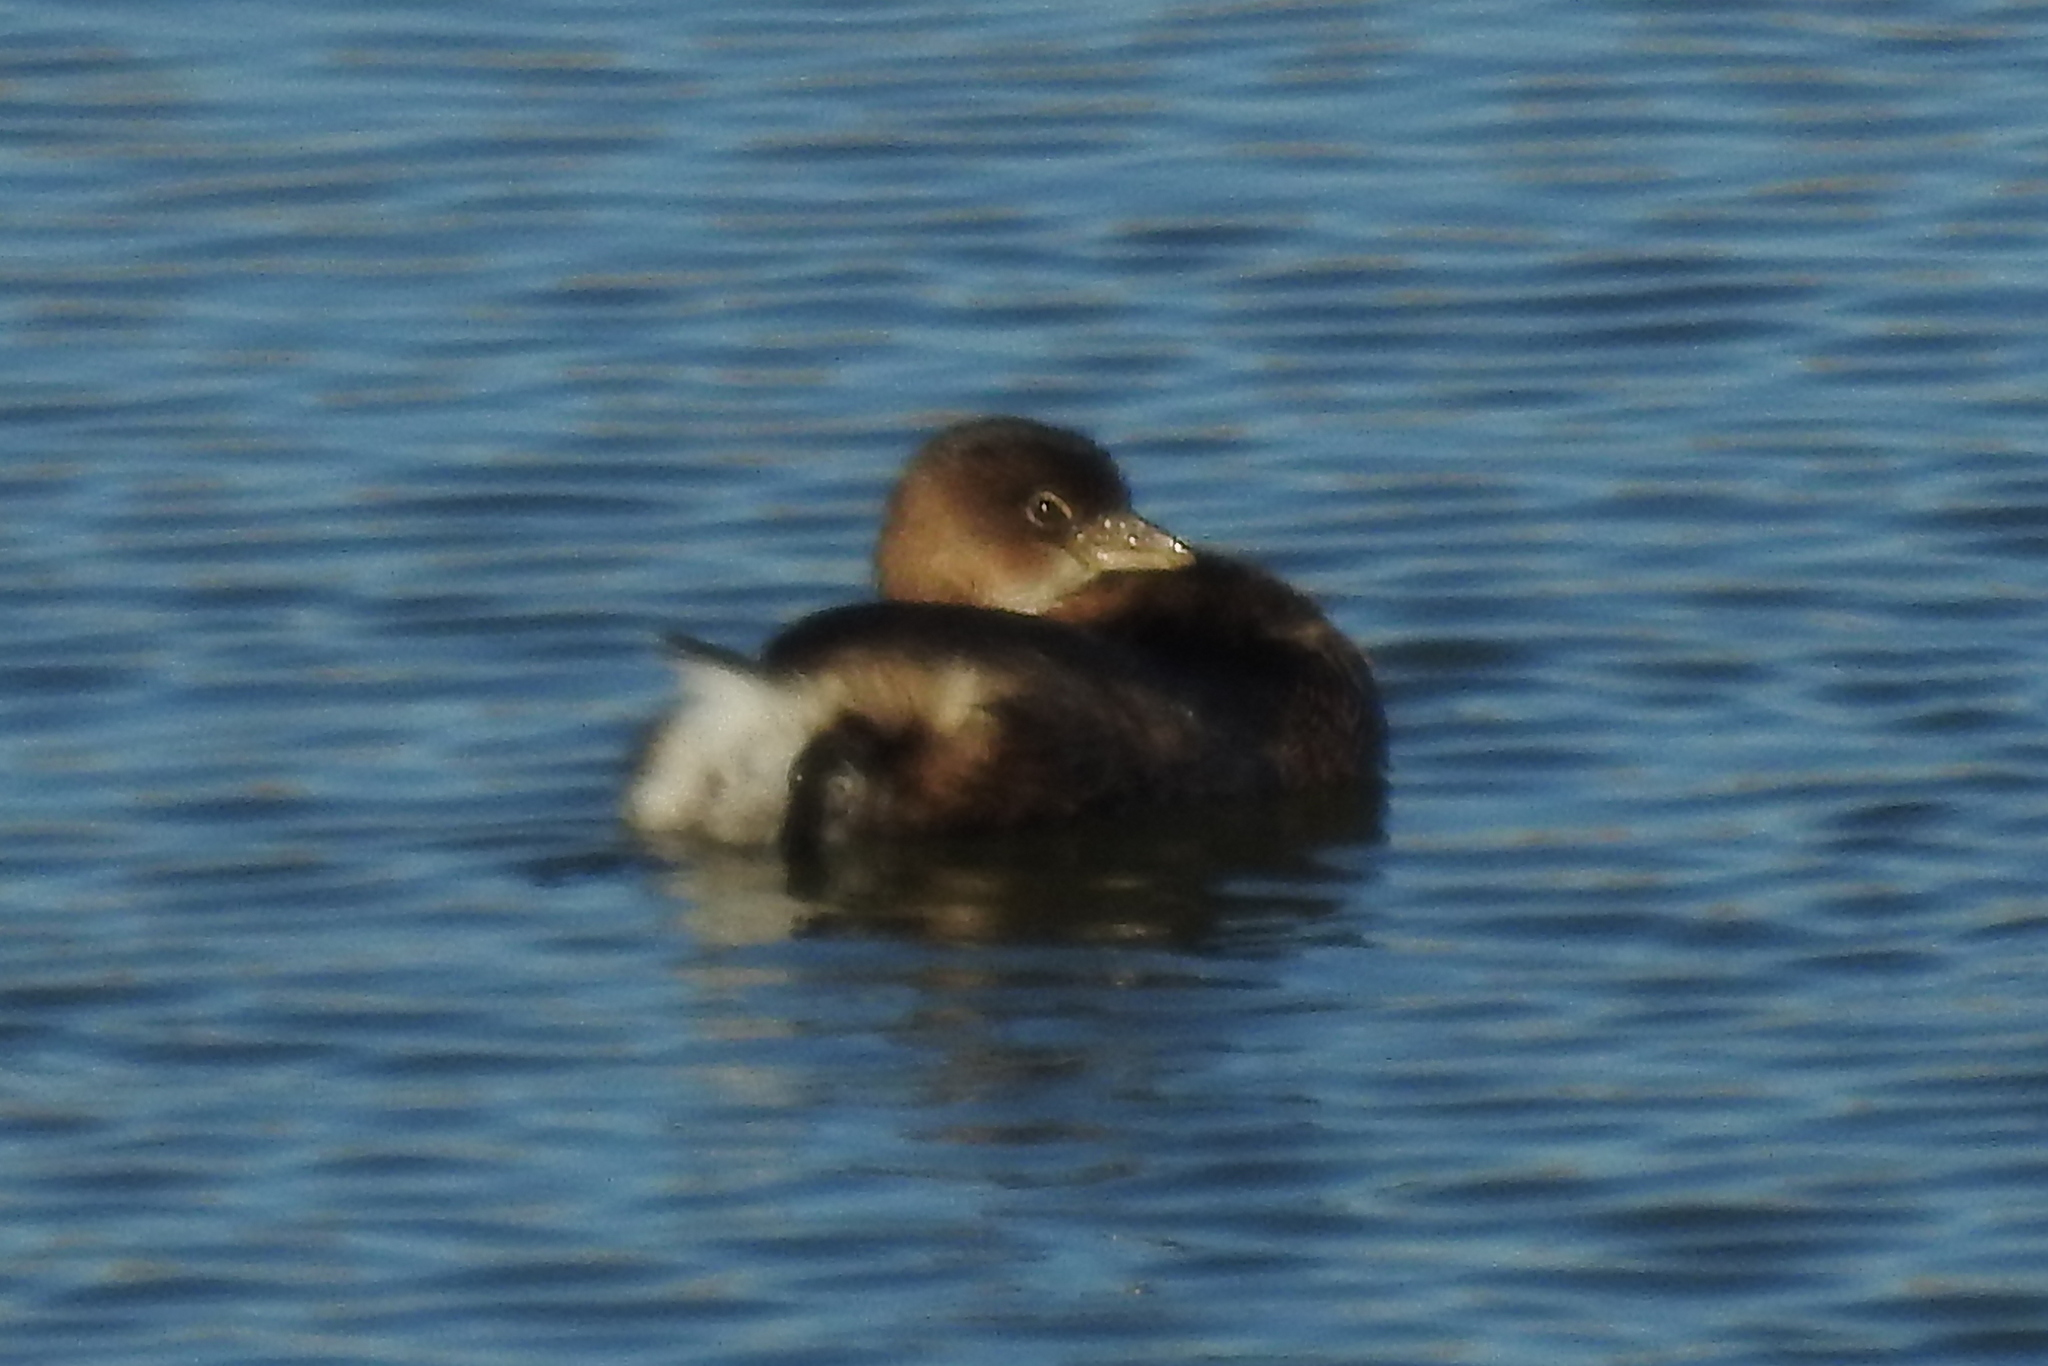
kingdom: Animalia
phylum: Chordata
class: Aves
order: Podicipediformes
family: Podicipedidae
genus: Podilymbus
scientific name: Podilymbus podiceps
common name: Pied-billed grebe
